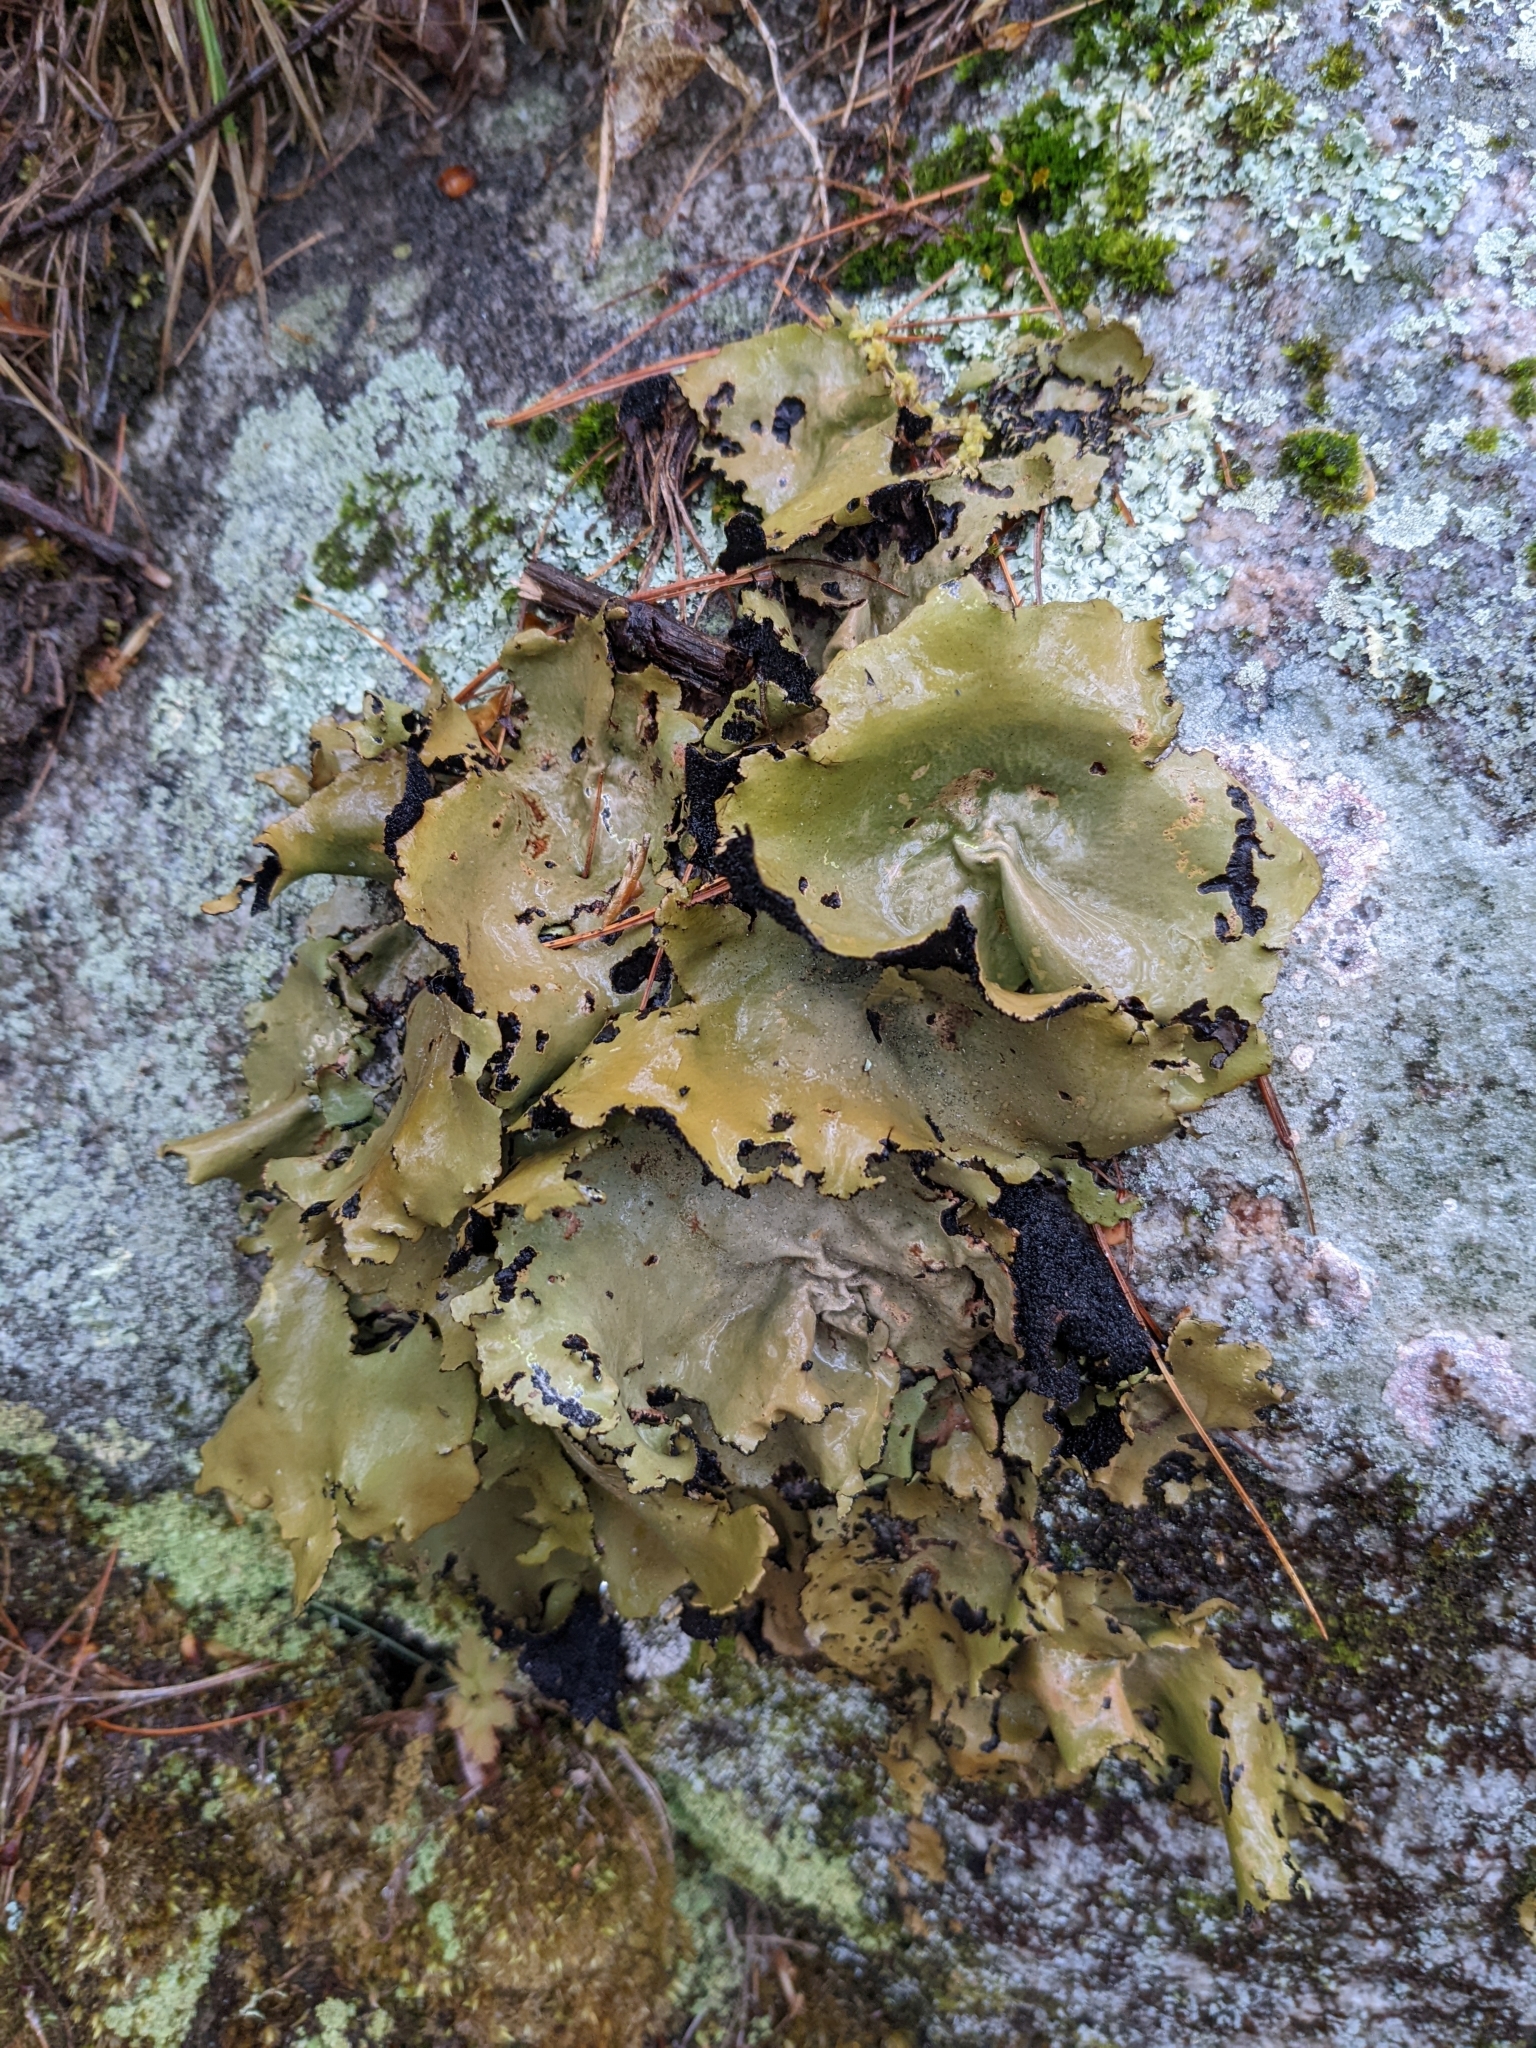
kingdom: Fungi
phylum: Ascomycota
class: Lecanoromycetes
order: Umbilicariales
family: Umbilicariaceae
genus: Umbilicaria
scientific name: Umbilicaria mammulata
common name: Smooth rock tripe
